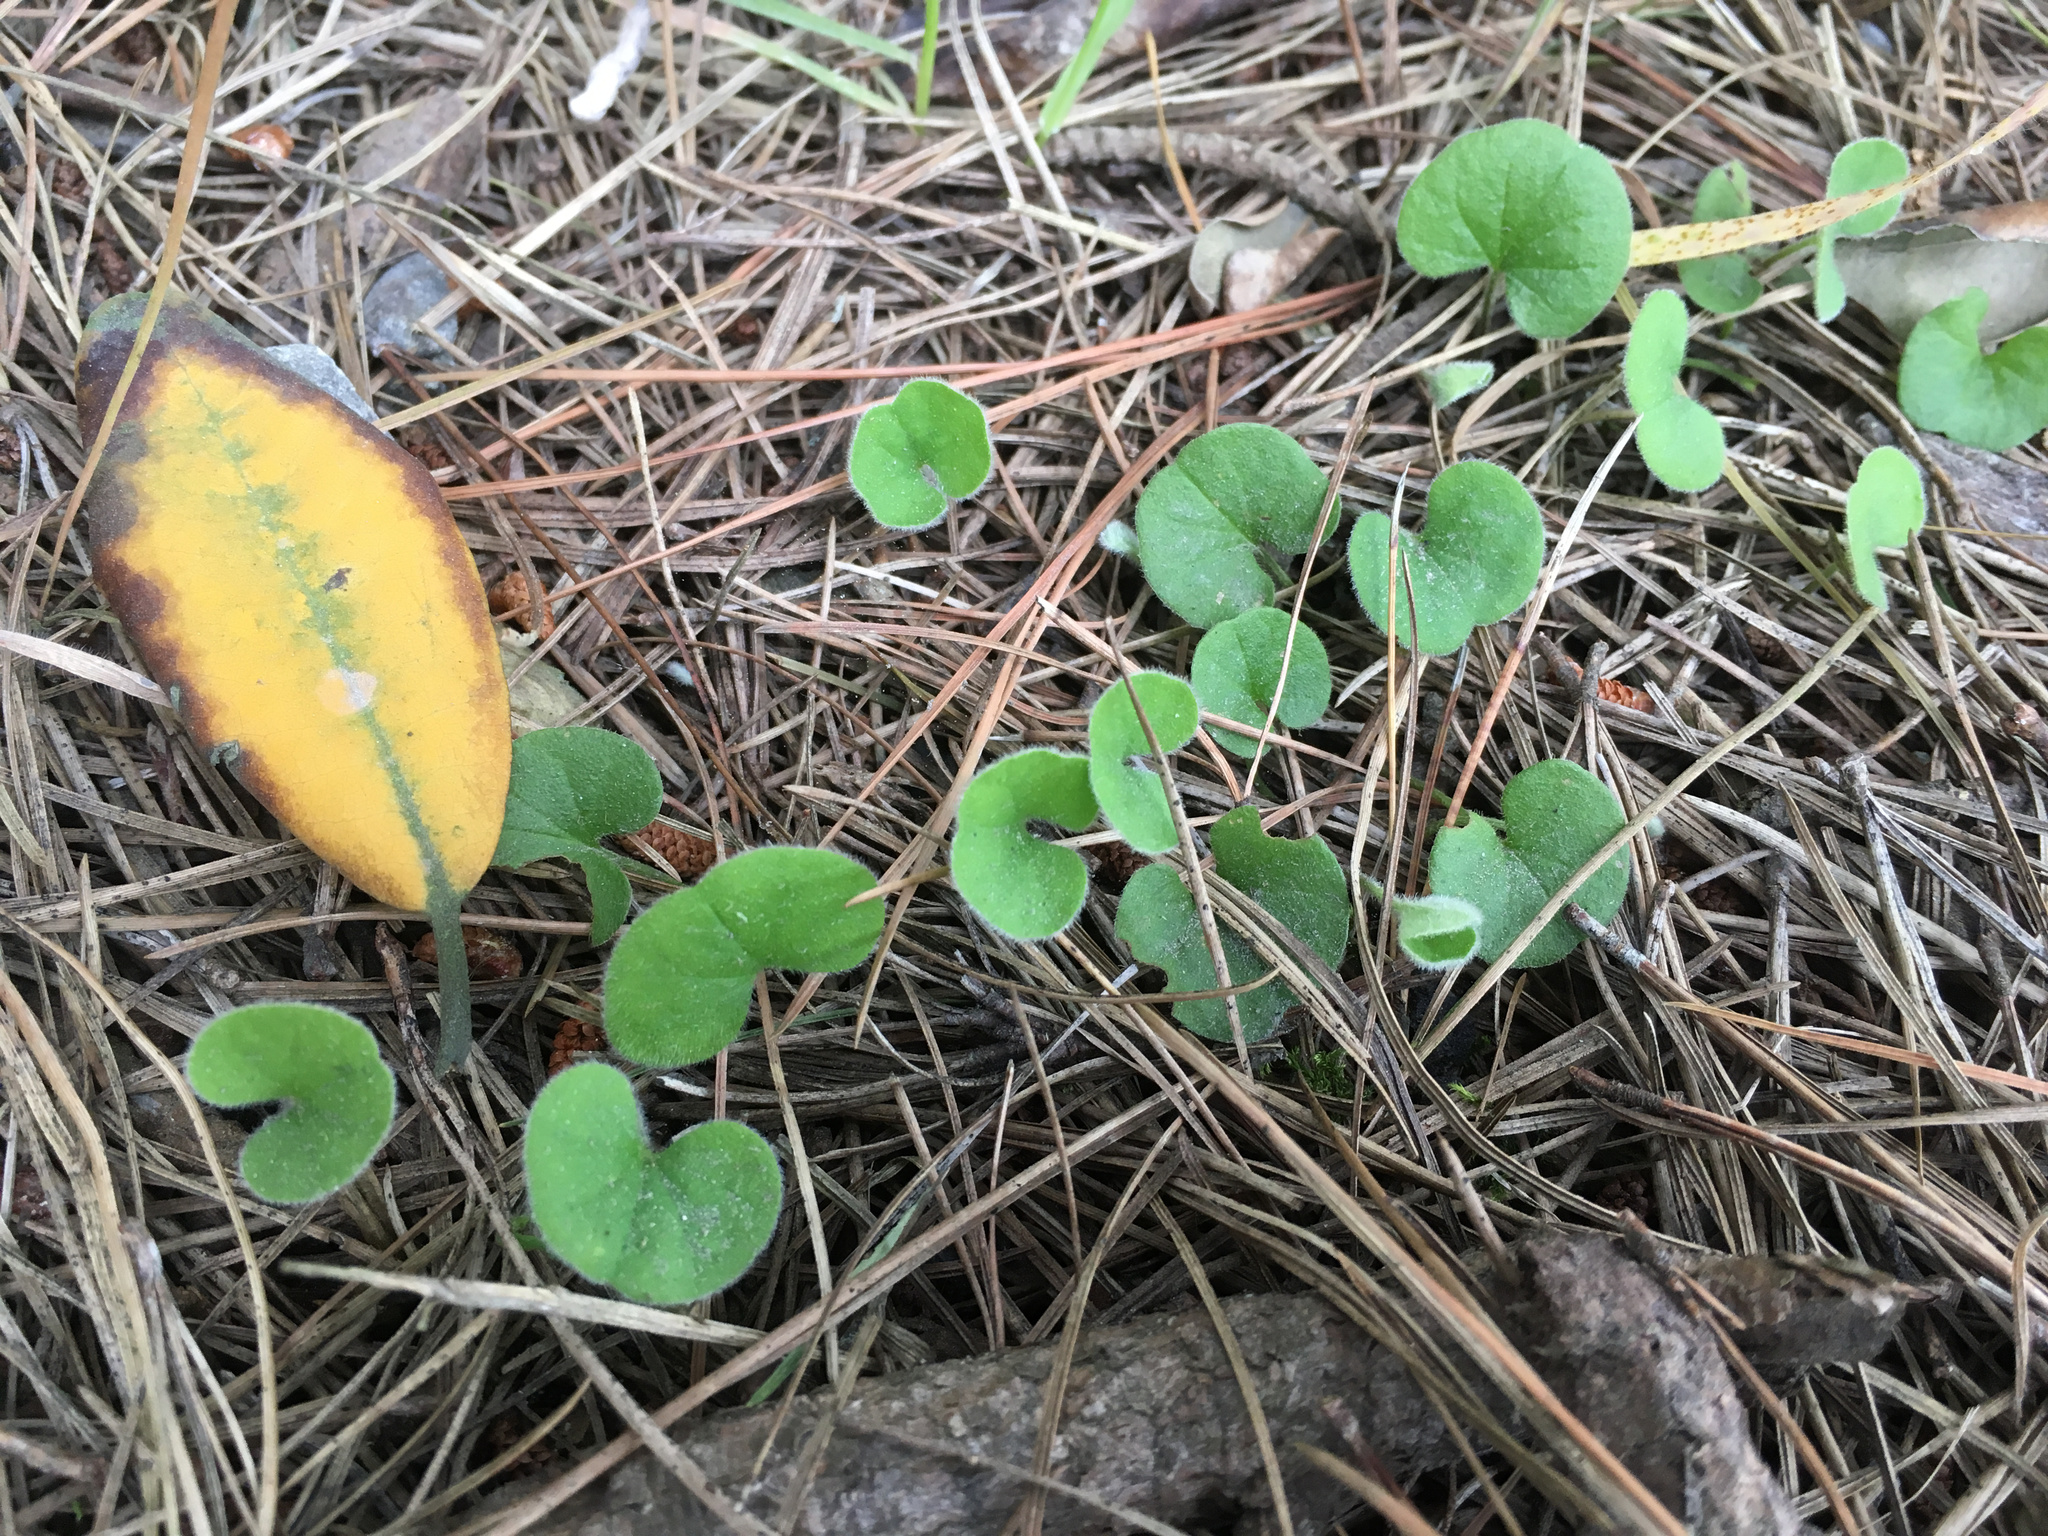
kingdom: Plantae
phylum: Tracheophyta
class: Magnoliopsida
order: Solanales
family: Convolvulaceae
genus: Dichondra
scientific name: Dichondra repens
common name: Kidneyweed
